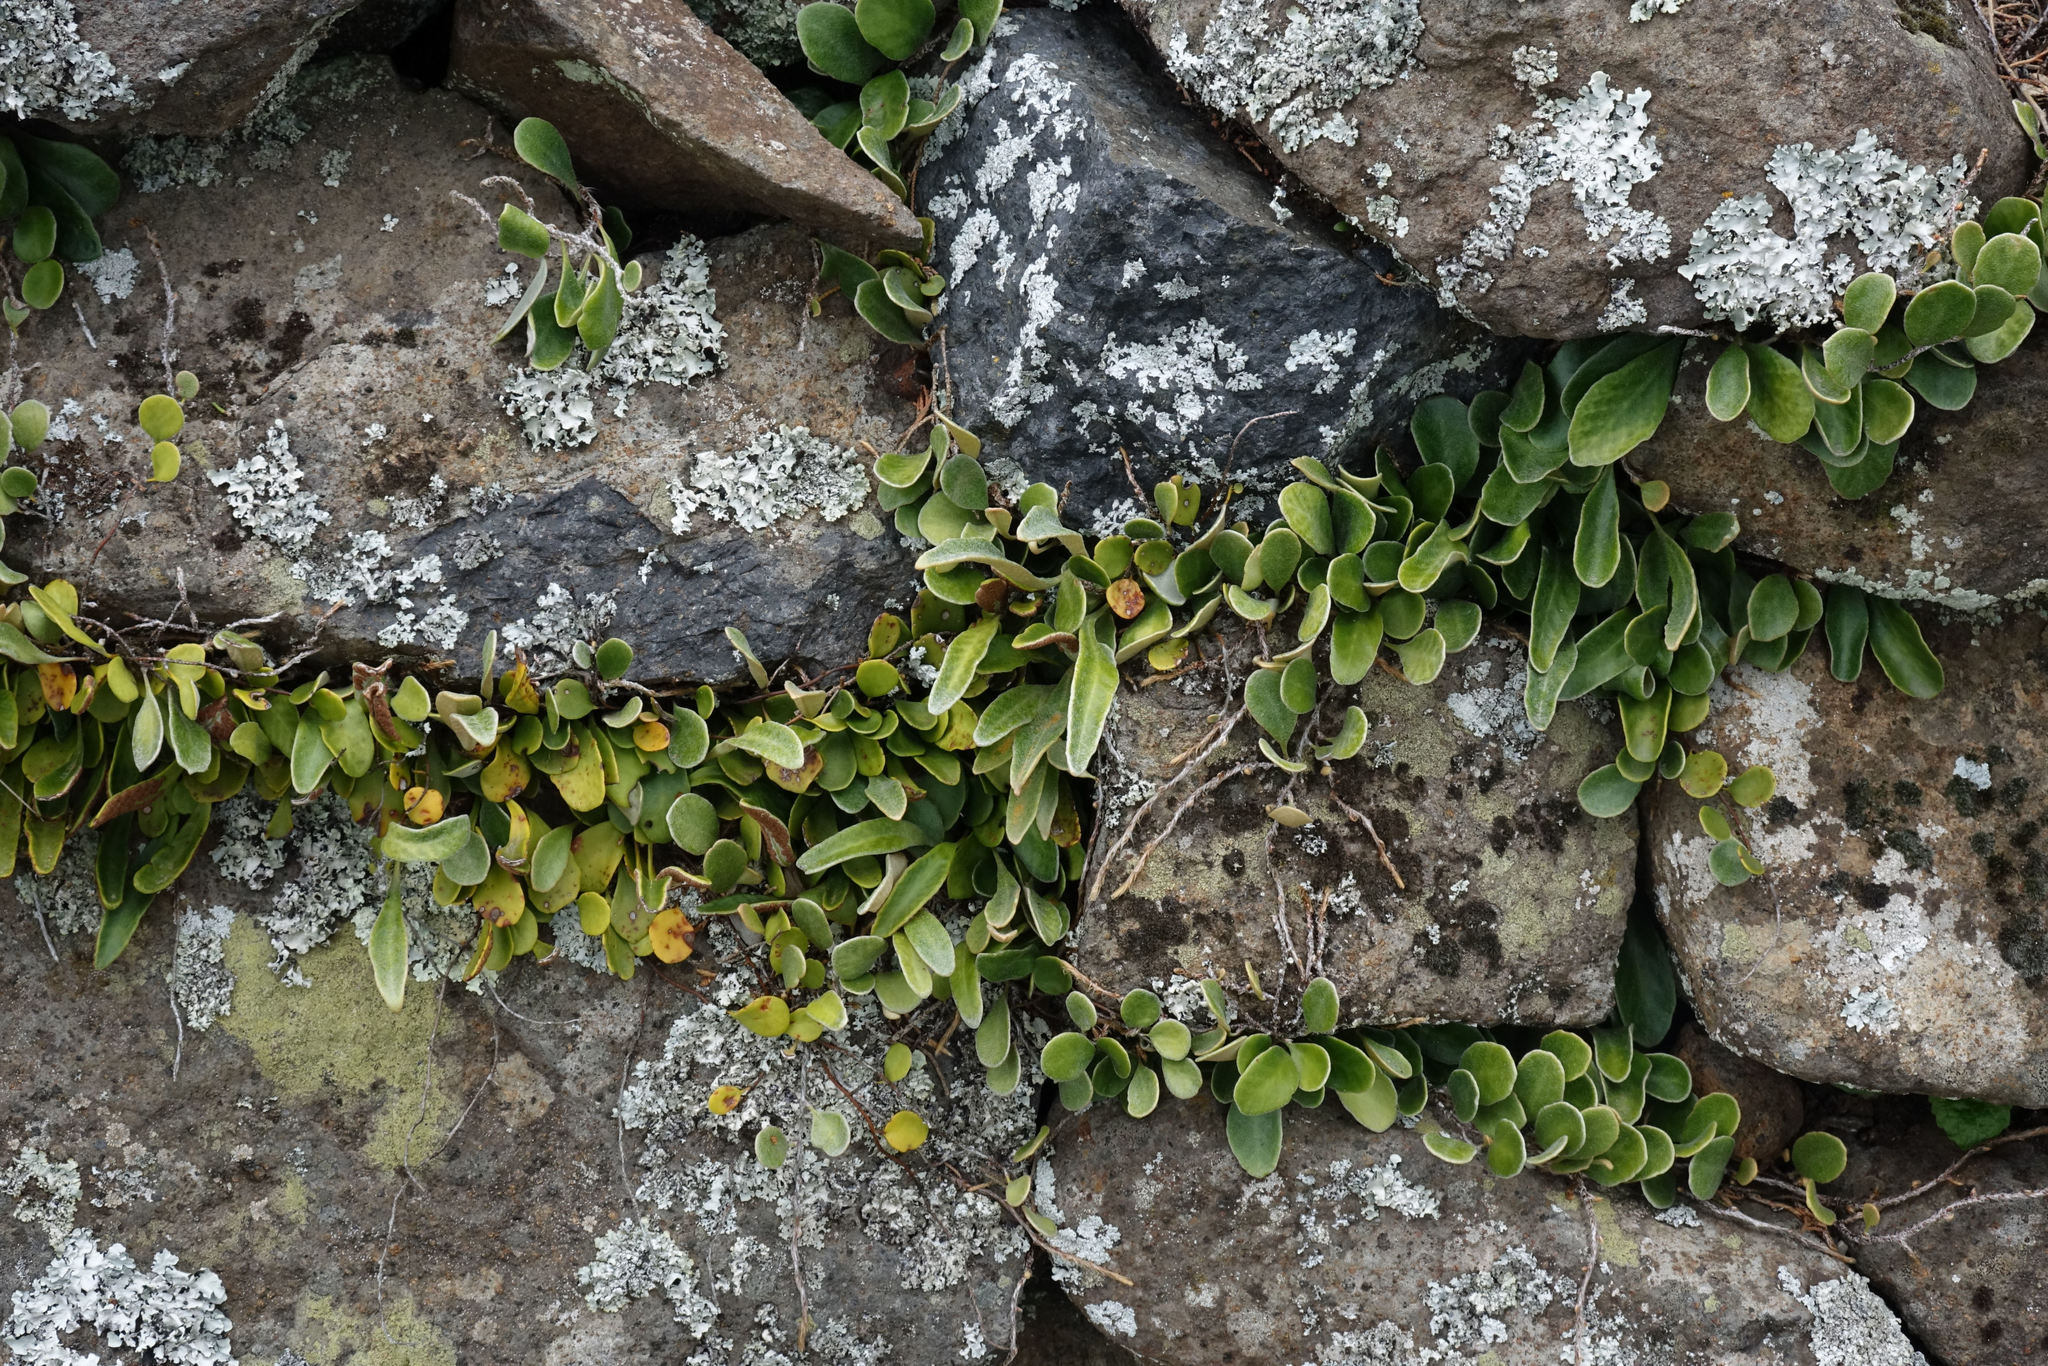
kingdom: Plantae
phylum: Tracheophyta
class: Polypodiopsida
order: Polypodiales
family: Polypodiaceae
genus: Pyrrosia
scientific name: Pyrrosia eleagnifolia
